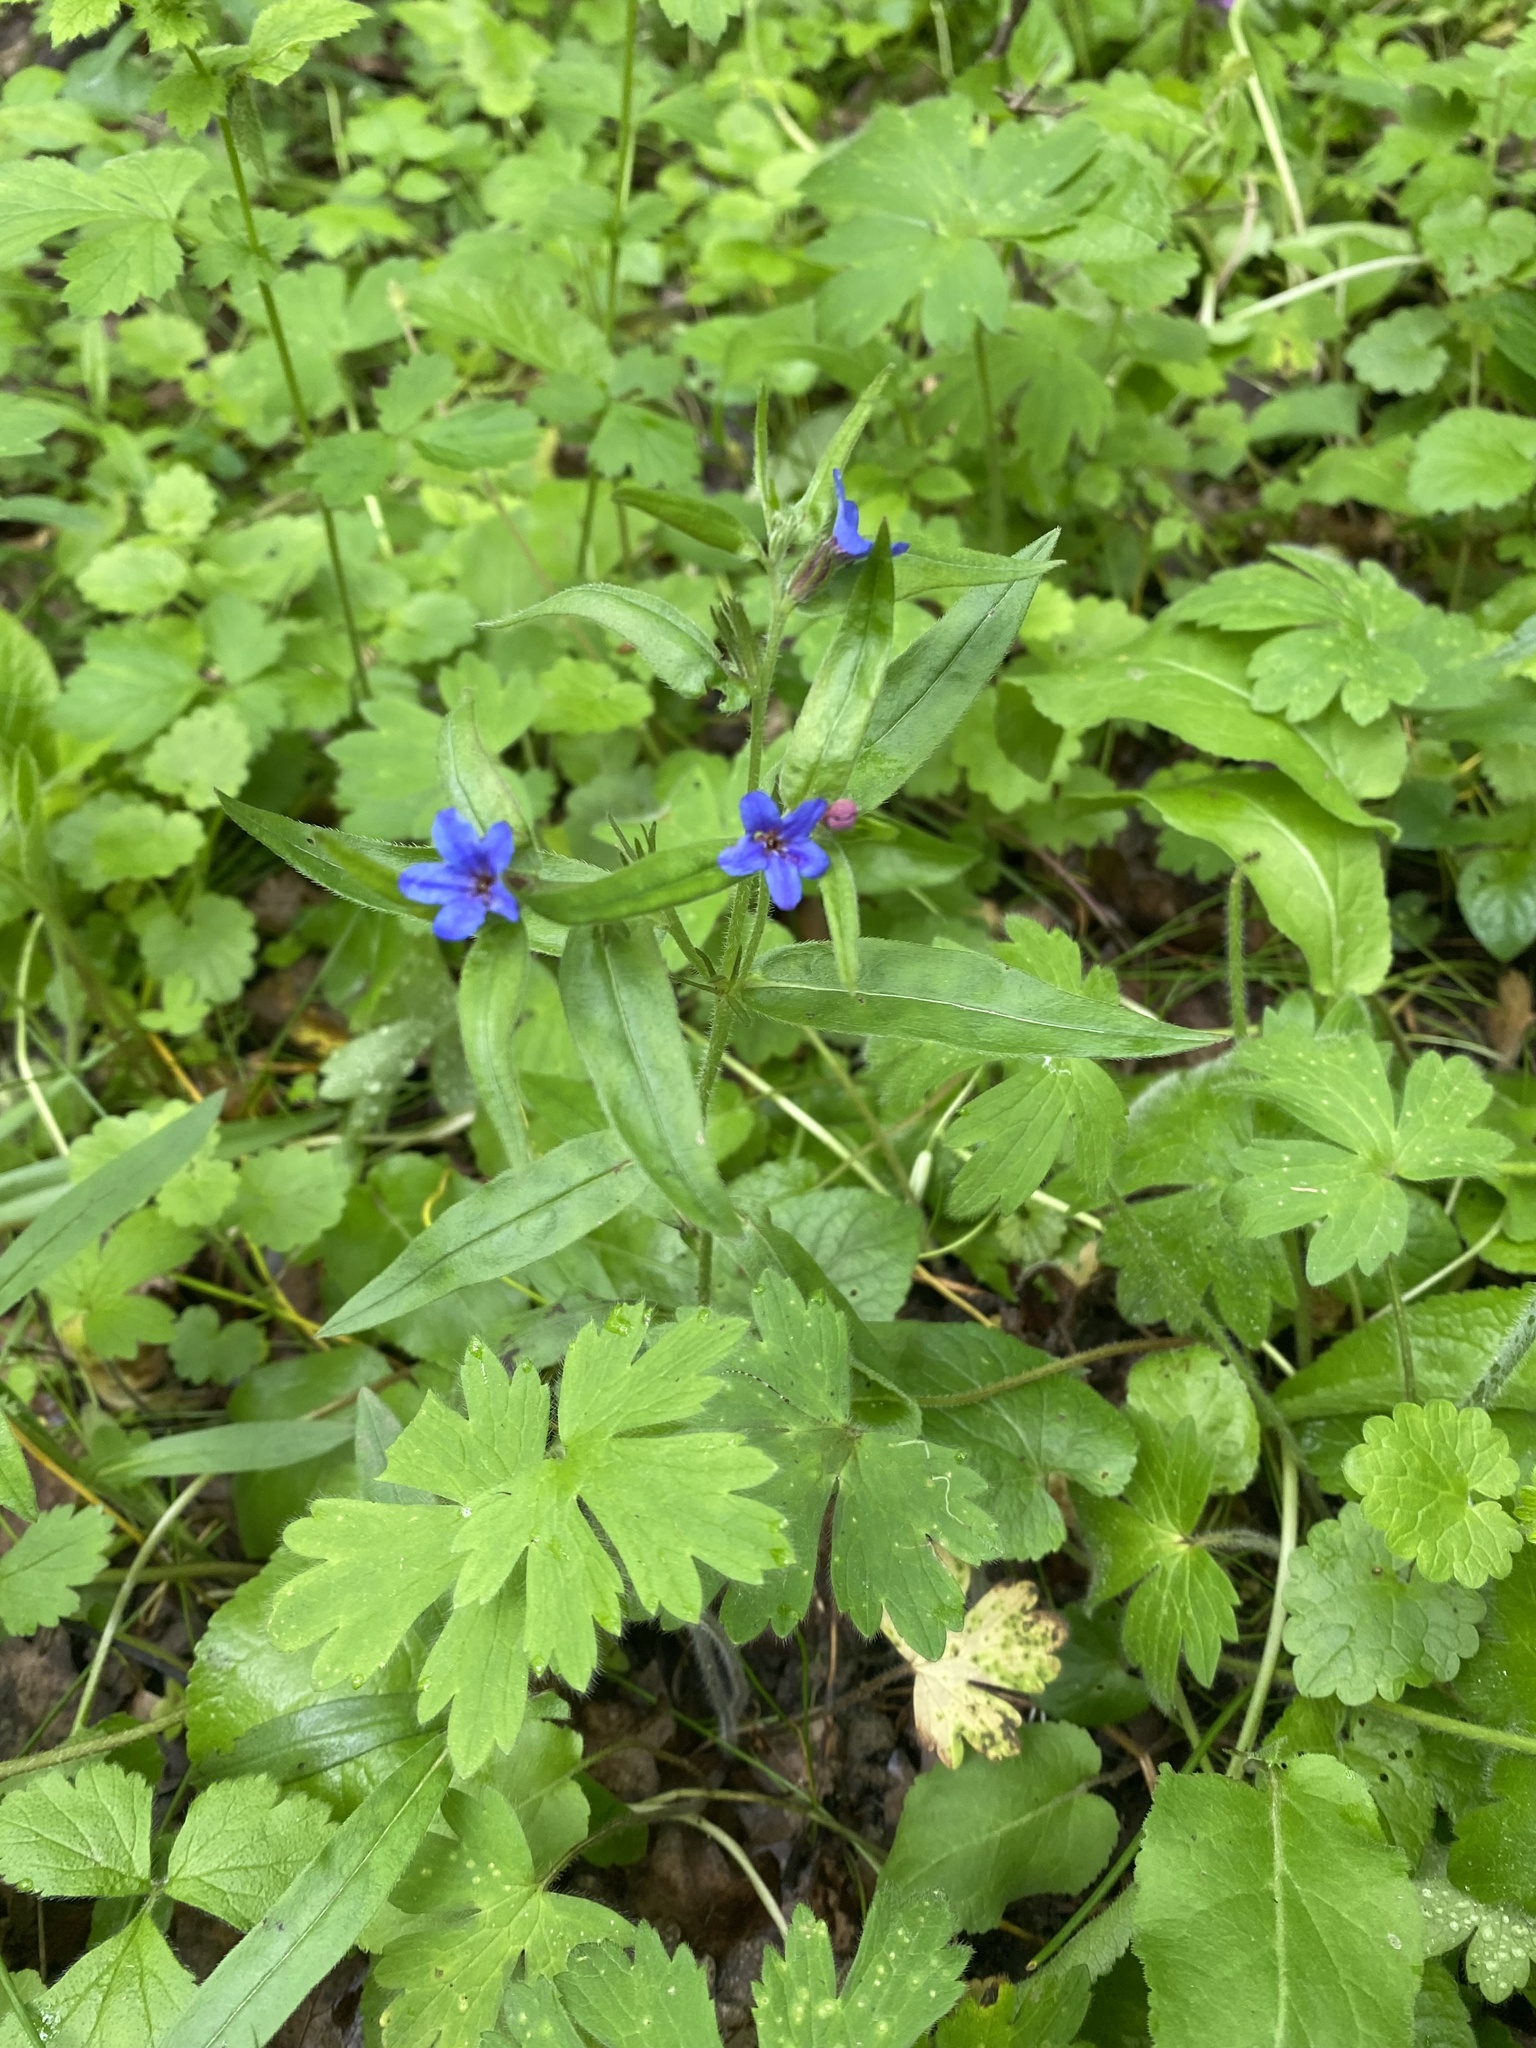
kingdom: Plantae
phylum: Tracheophyta
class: Magnoliopsida
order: Boraginales
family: Boraginaceae
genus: Aegonychon
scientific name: Aegonychon purpurocaeruleum
